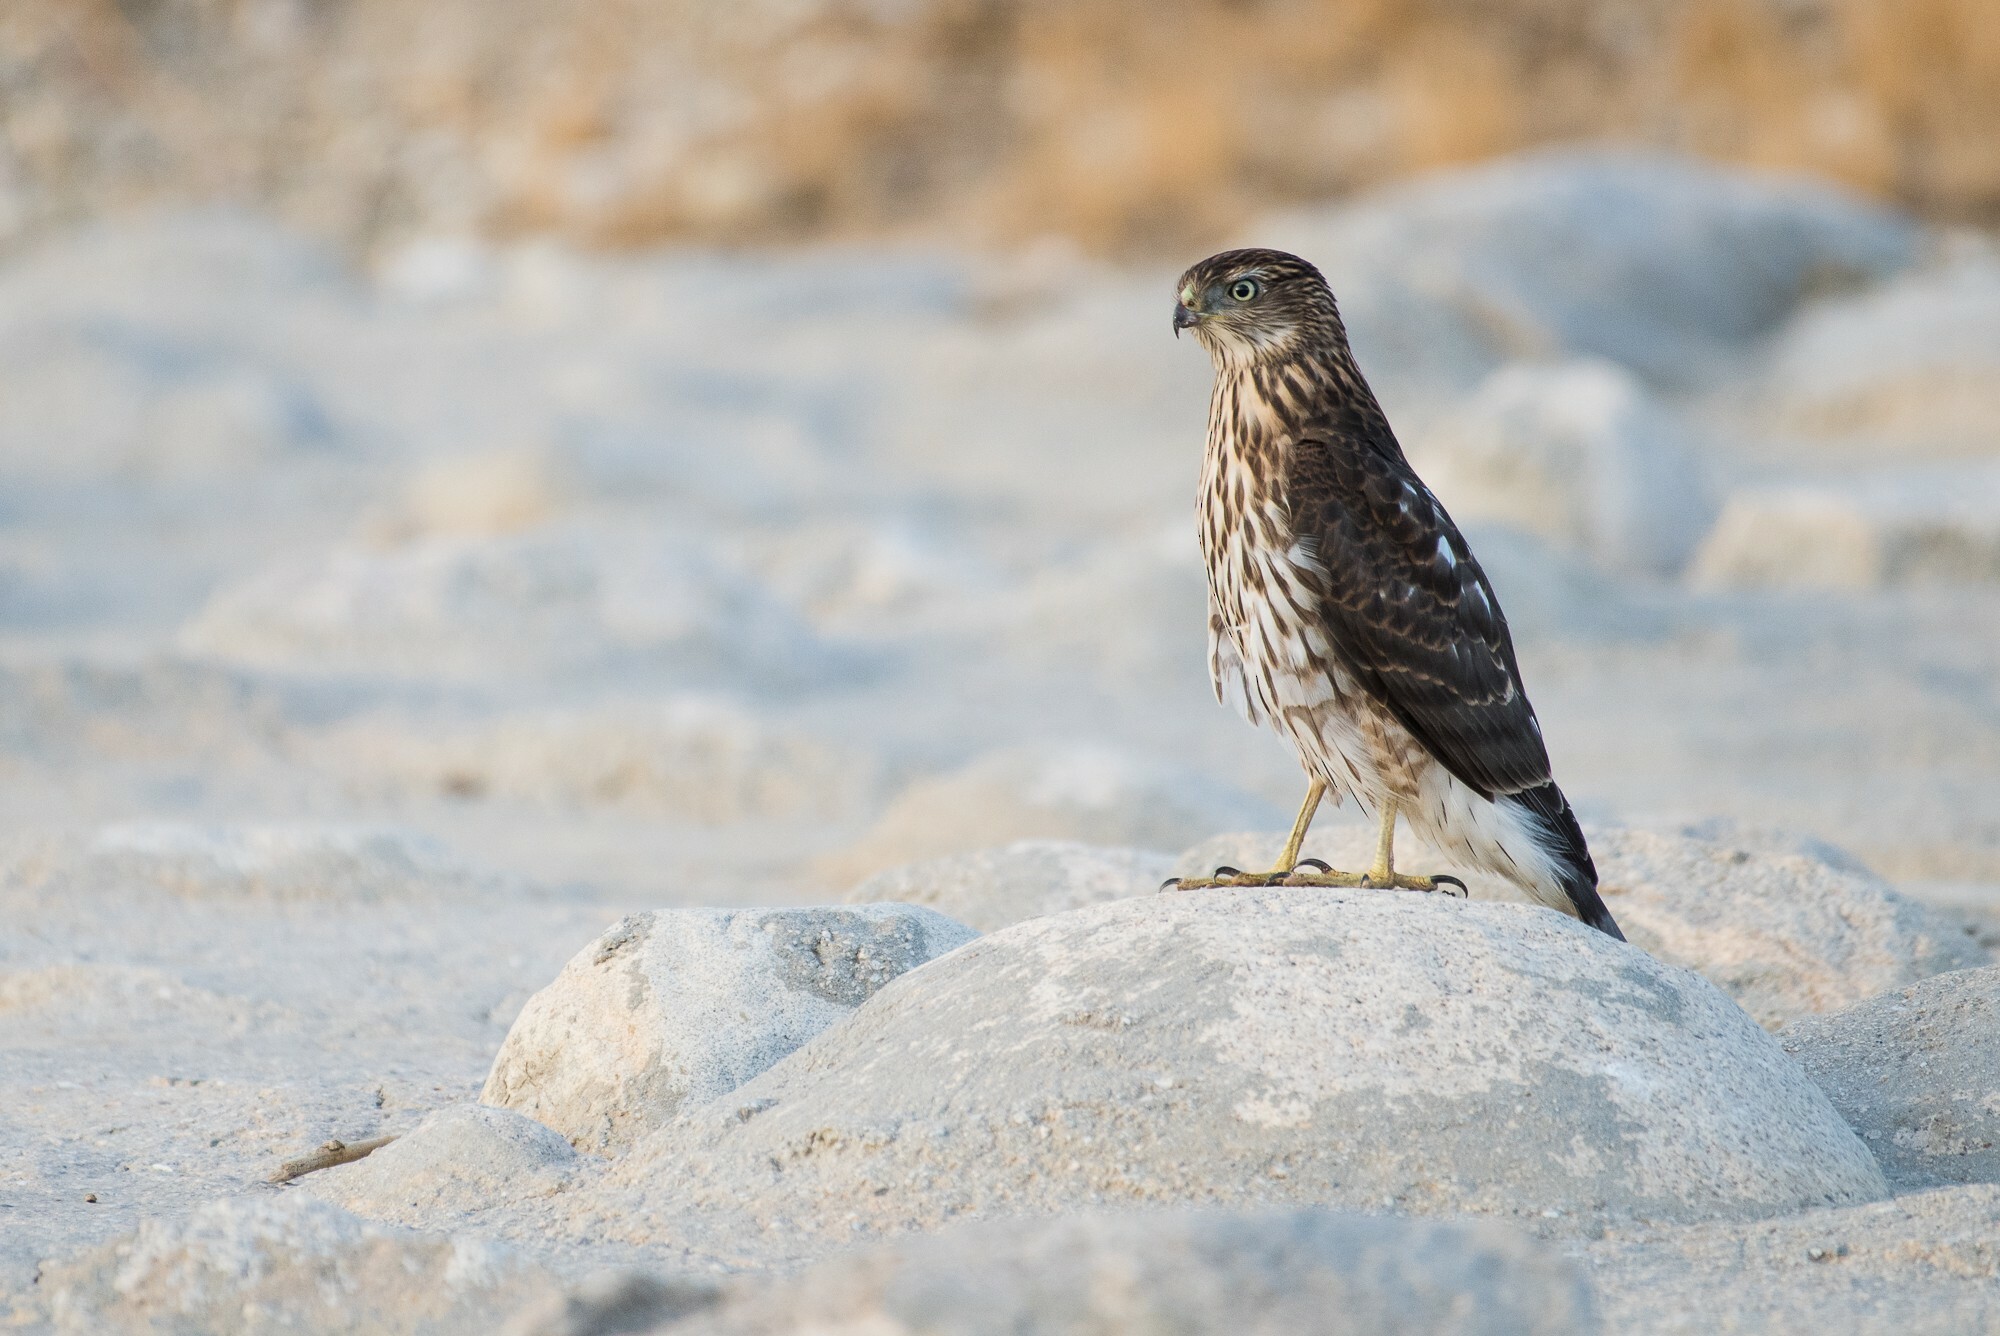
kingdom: Animalia
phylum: Chordata
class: Aves
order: Accipitriformes
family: Accipitridae
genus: Accipiter
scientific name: Accipiter cooperii
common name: Cooper's hawk
